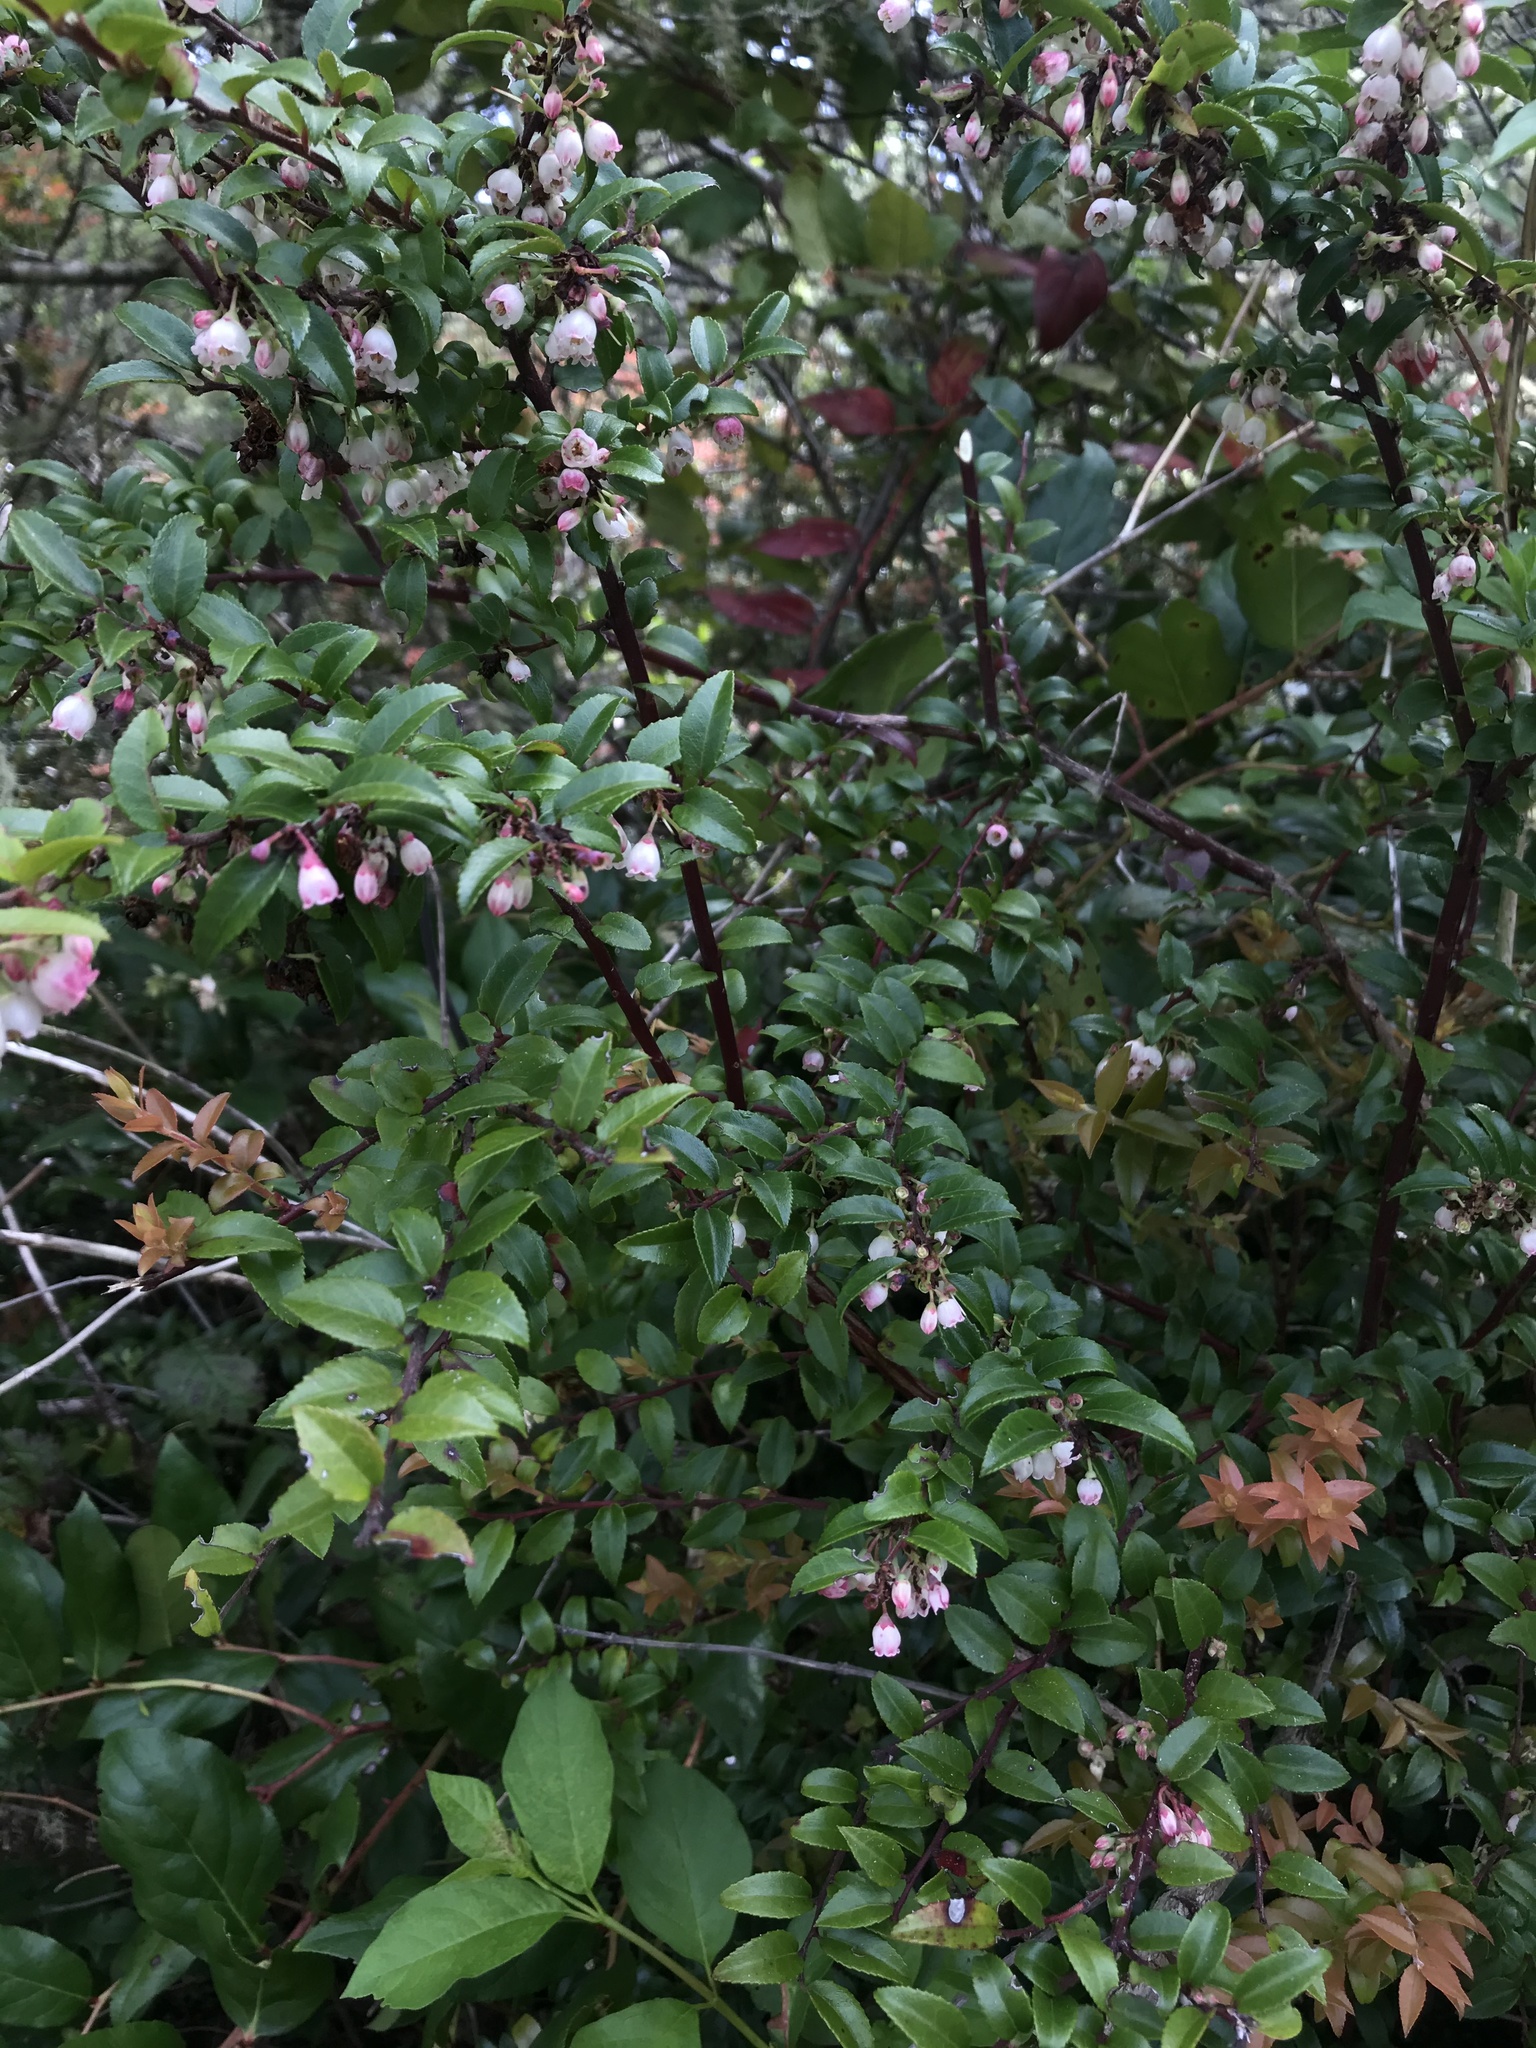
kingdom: Plantae
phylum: Tracheophyta
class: Magnoliopsida
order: Ericales
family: Ericaceae
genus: Vaccinium
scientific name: Vaccinium ovatum
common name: California-huckleberry
